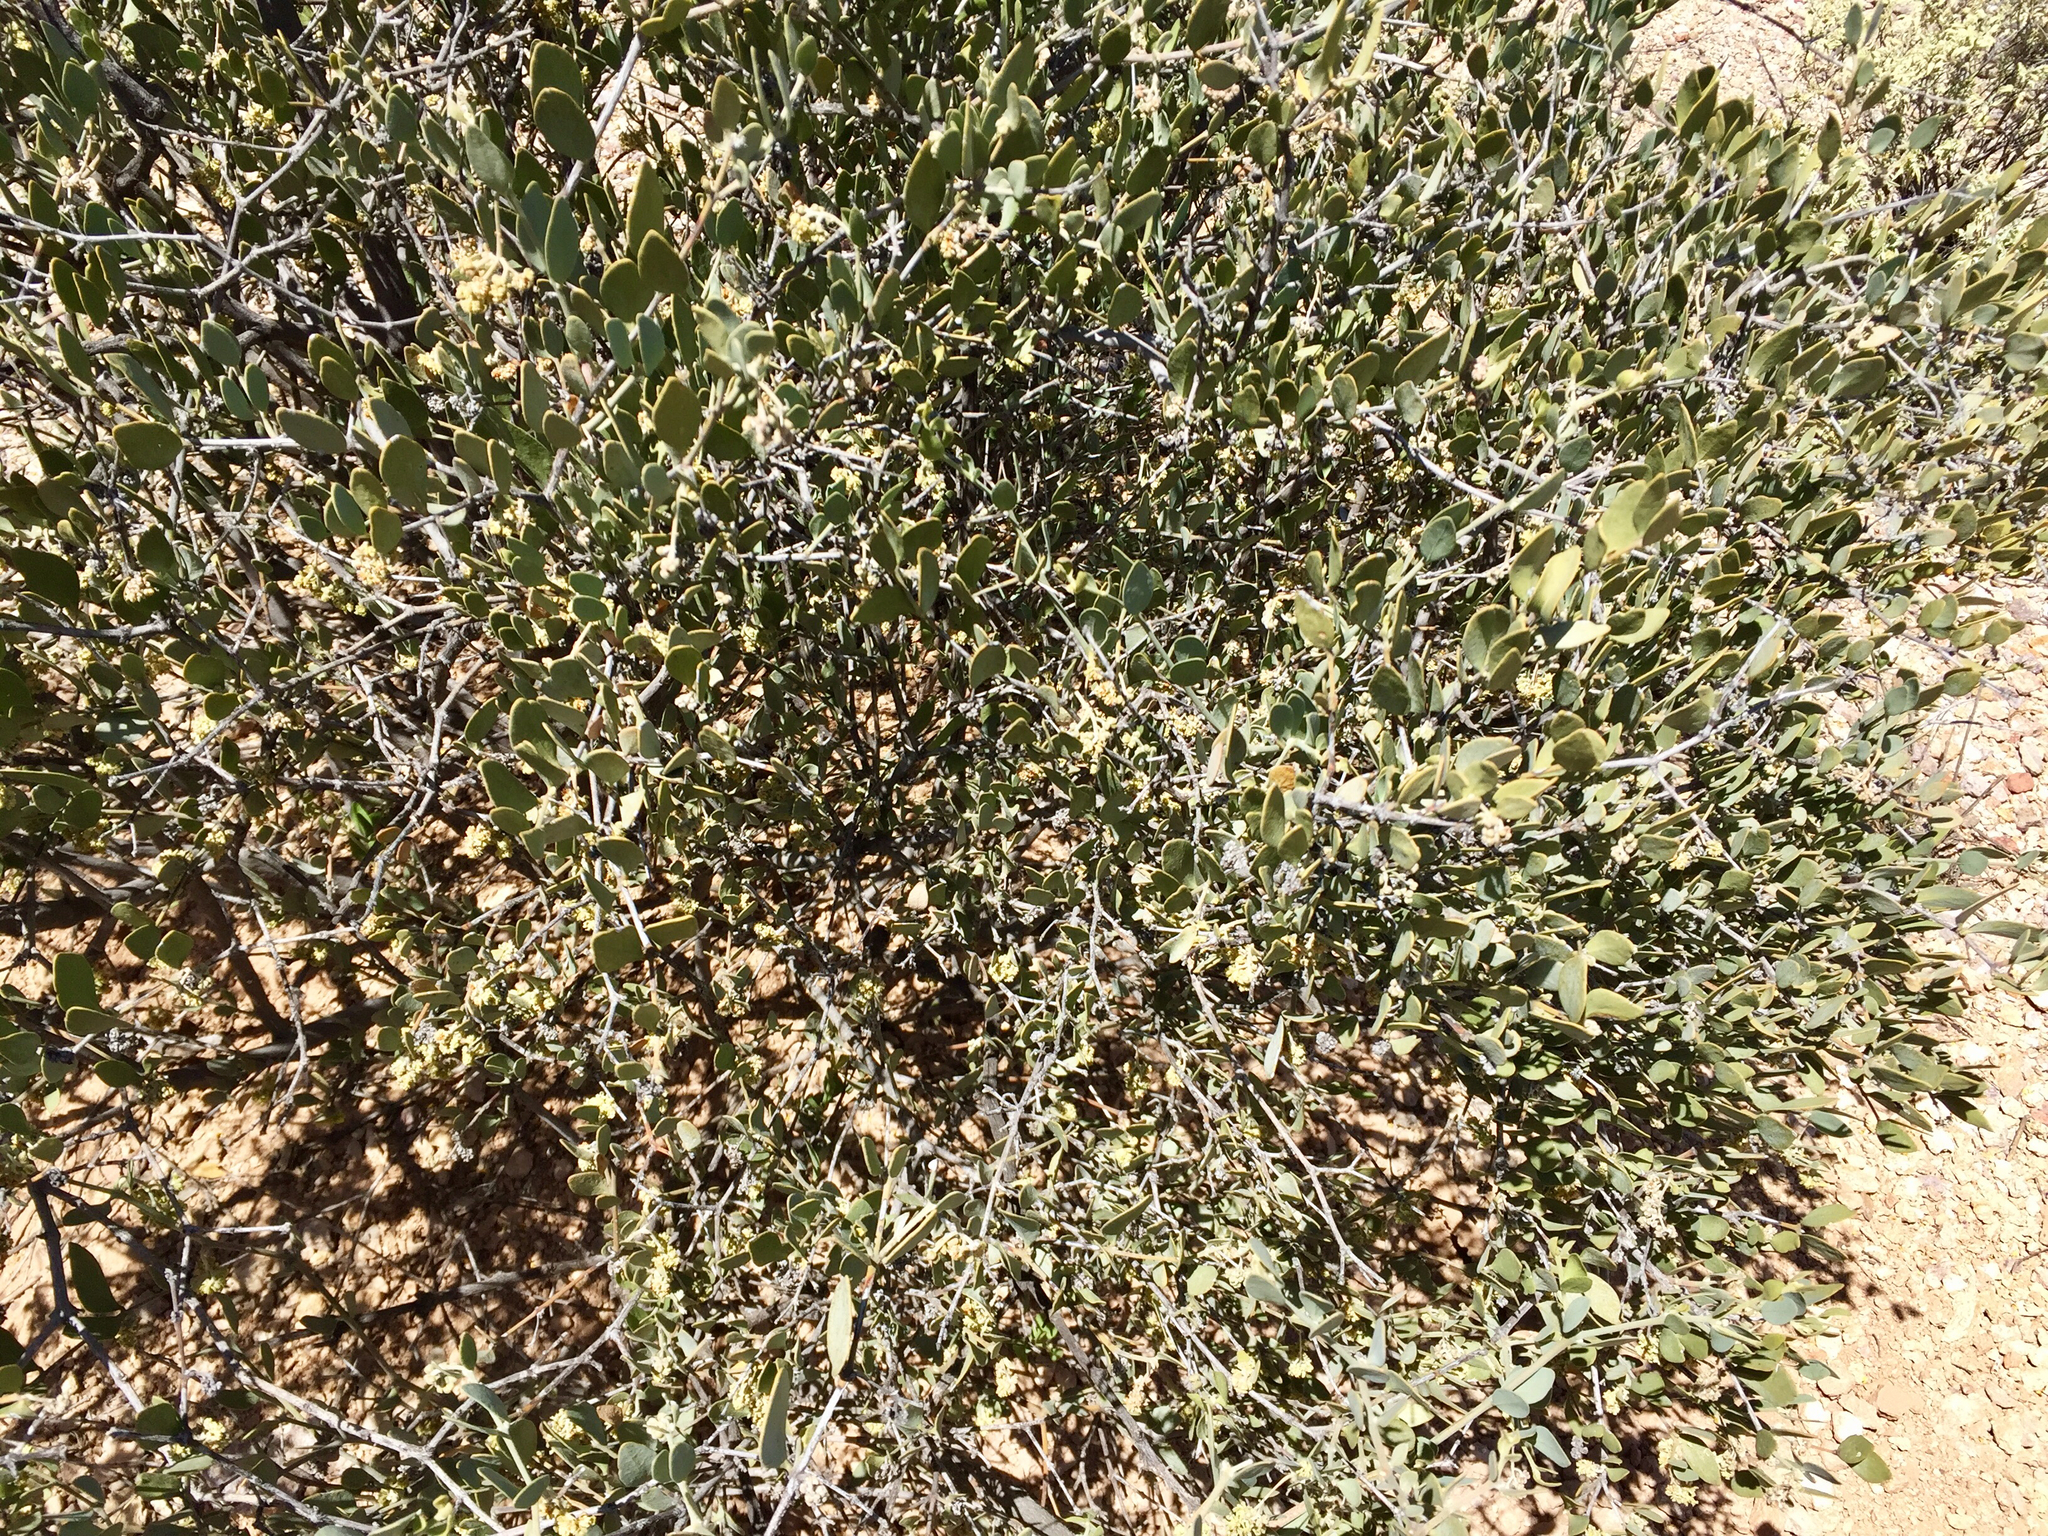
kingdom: Plantae
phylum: Tracheophyta
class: Magnoliopsida
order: Caryophyllales
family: Simmondsiaceae
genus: Simmondsia
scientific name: Simmondsia chinensis
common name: Jojoba
